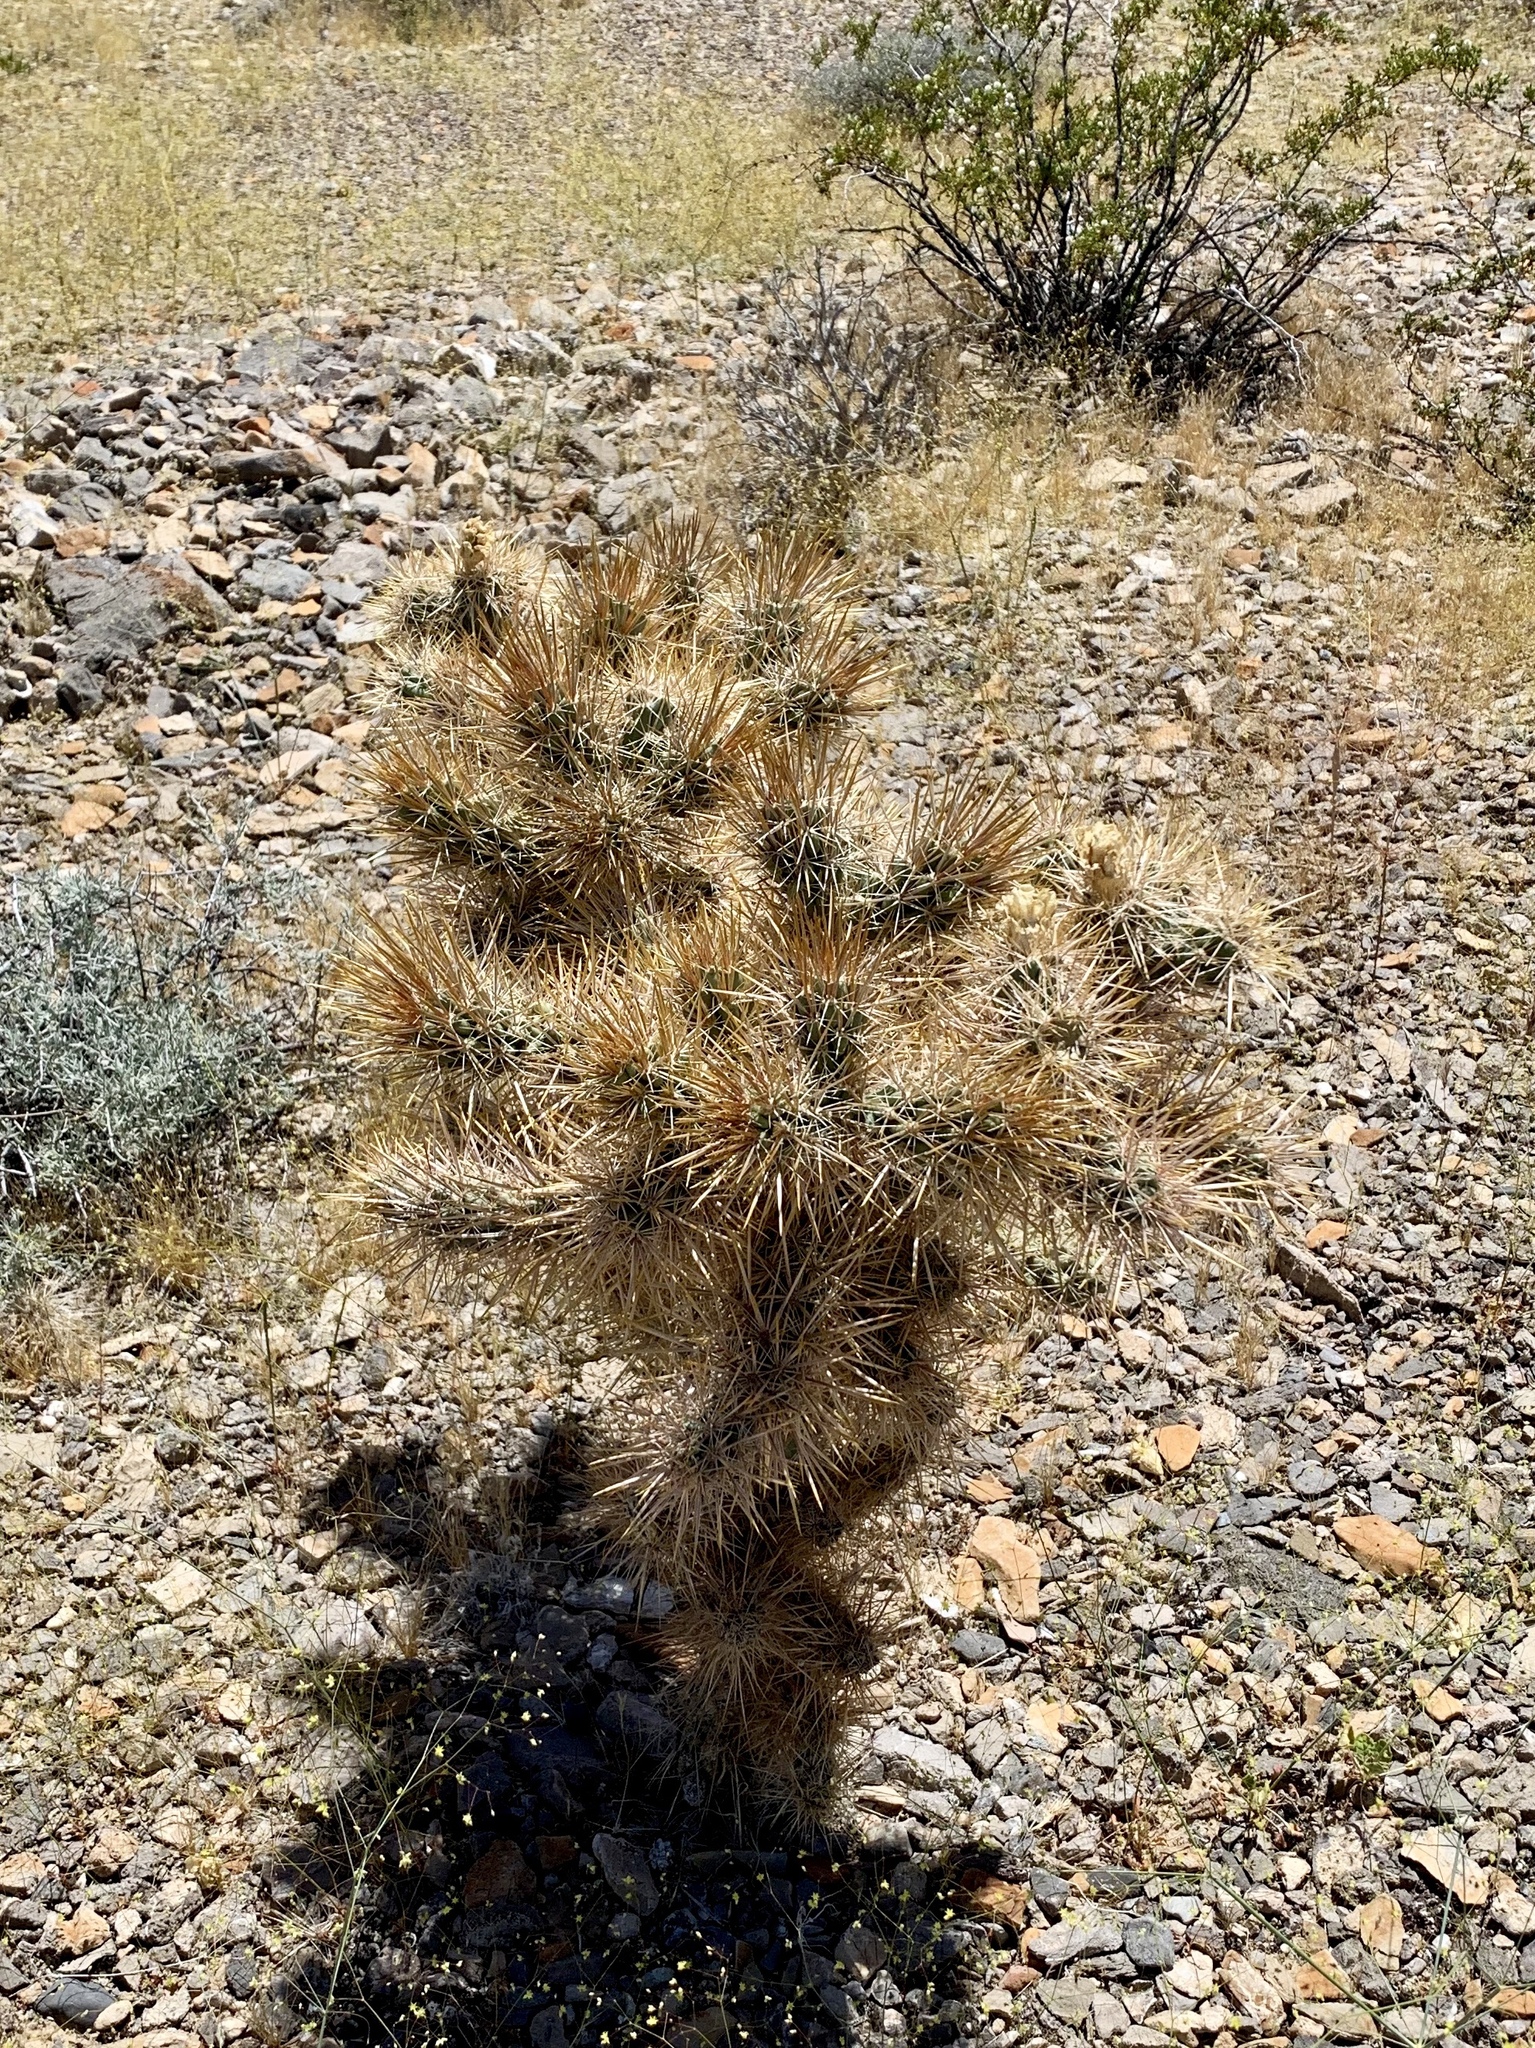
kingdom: Plantae
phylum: Tracheophyta
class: Magnoliopsida
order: Caryophyllales
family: Cactaceae
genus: Cylindropuntia
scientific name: Cylindropuntia echinocarpa
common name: Ground cholla
